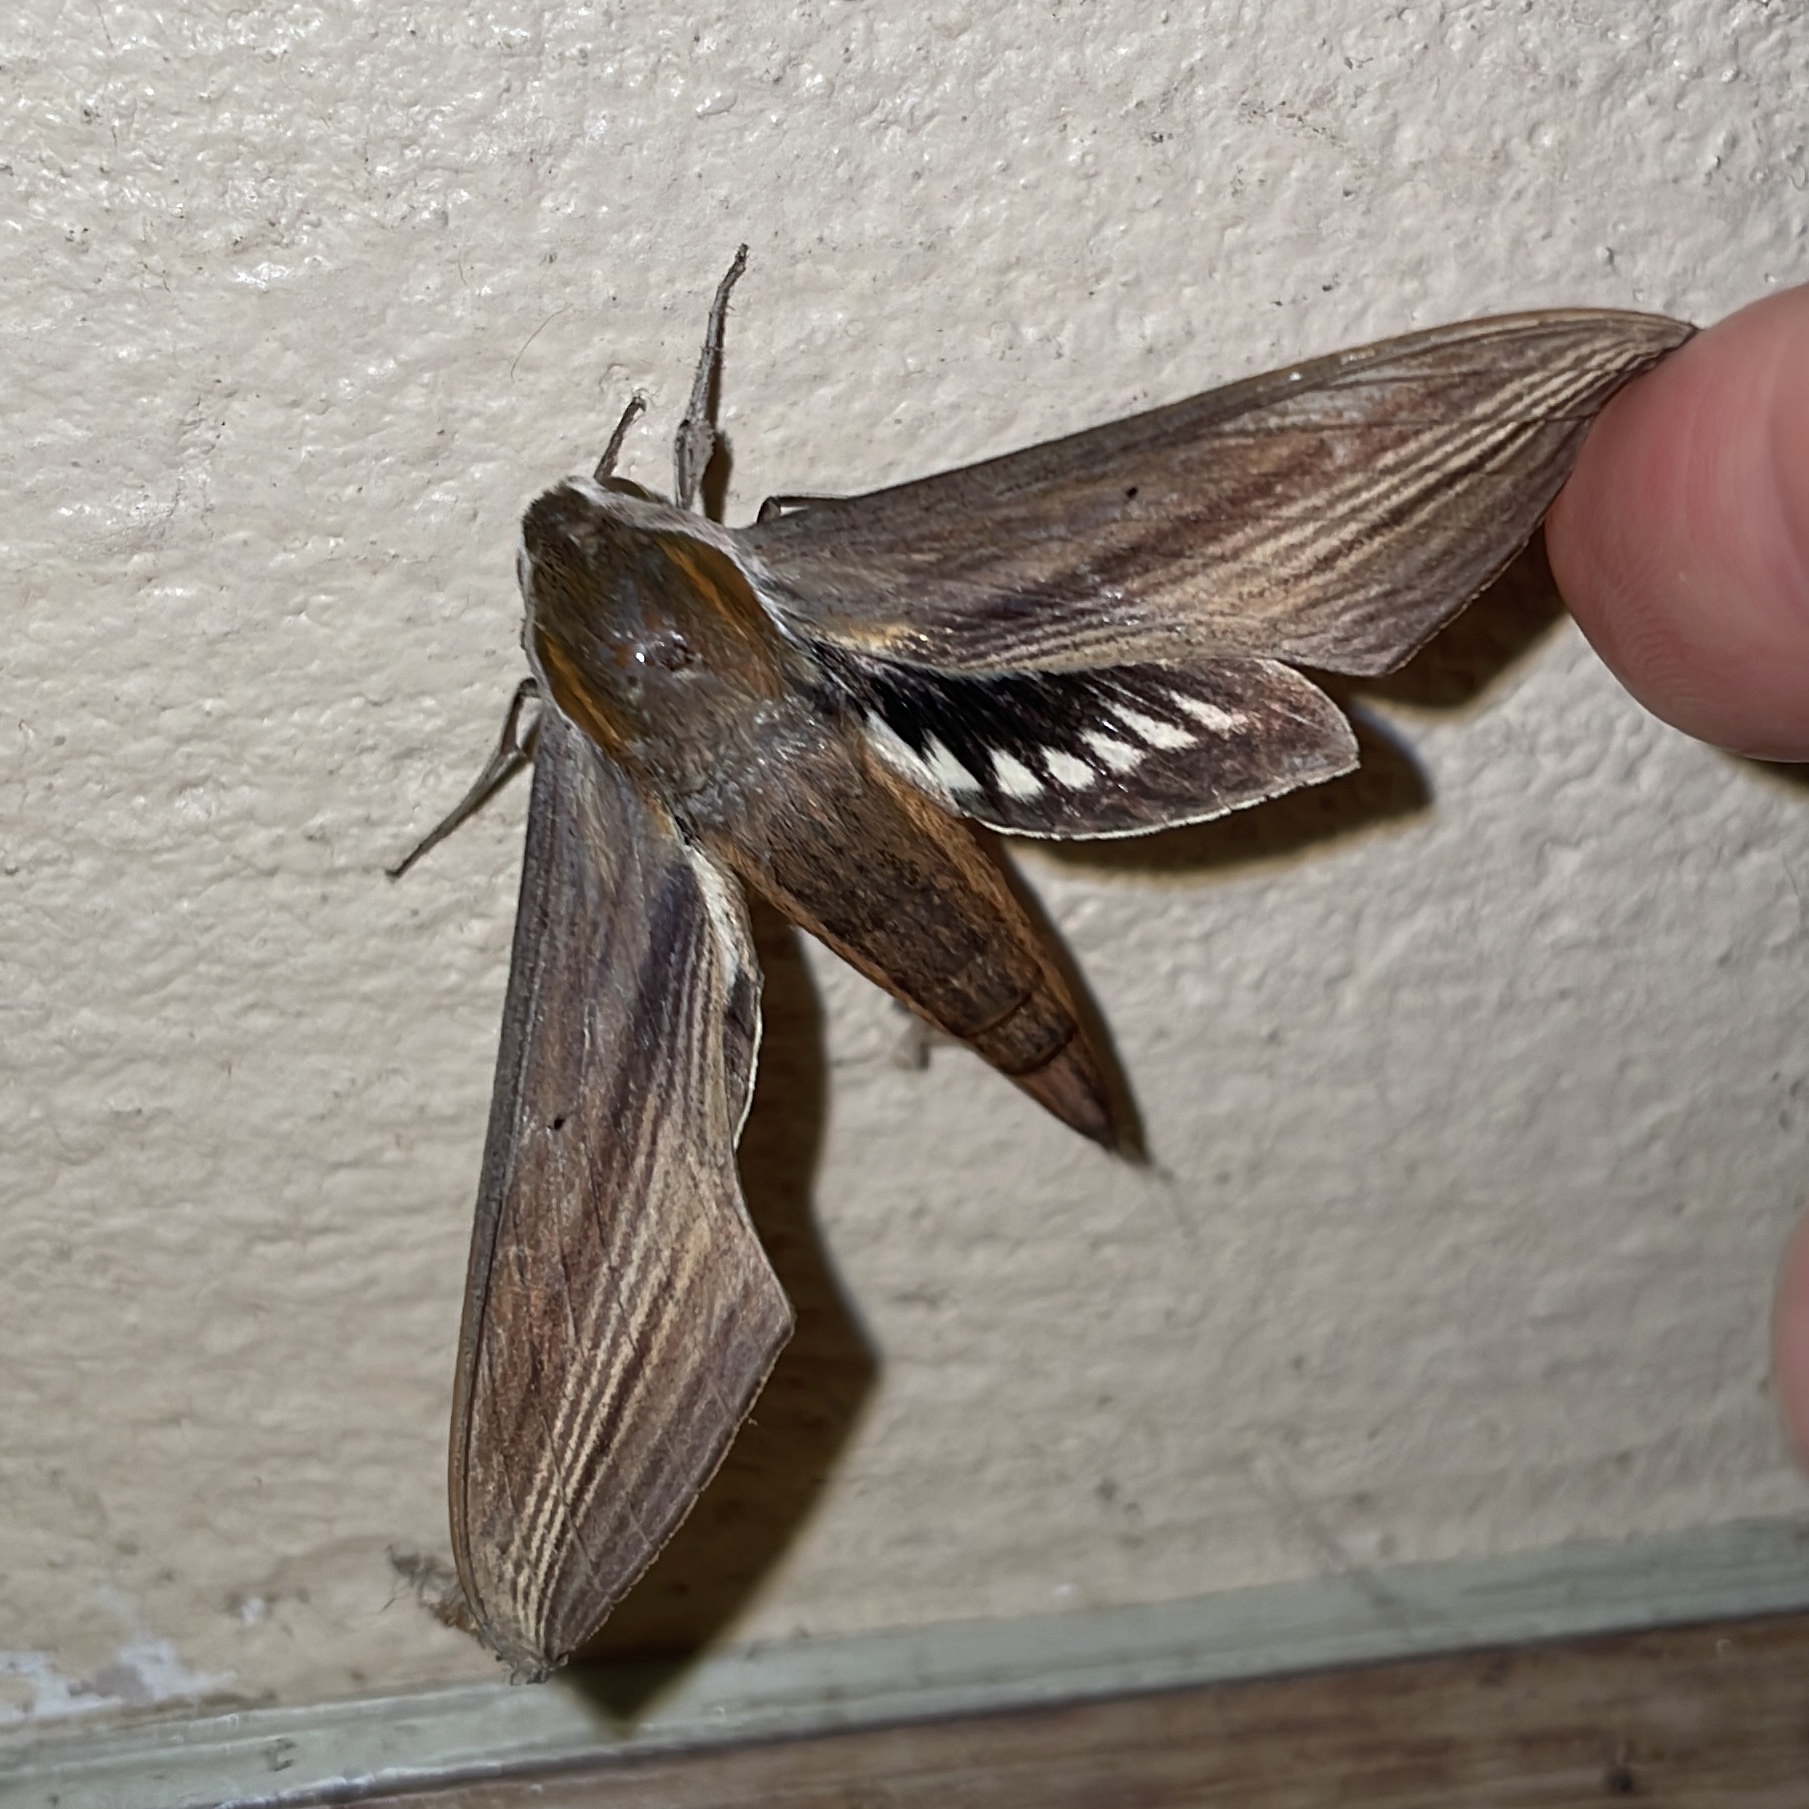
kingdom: Animalia
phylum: Arthropoda
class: Insecta
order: Lepidoptera
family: Sphingidae
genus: Xylophanes
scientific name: Xylophanes tersa
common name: Tersa sphinx
